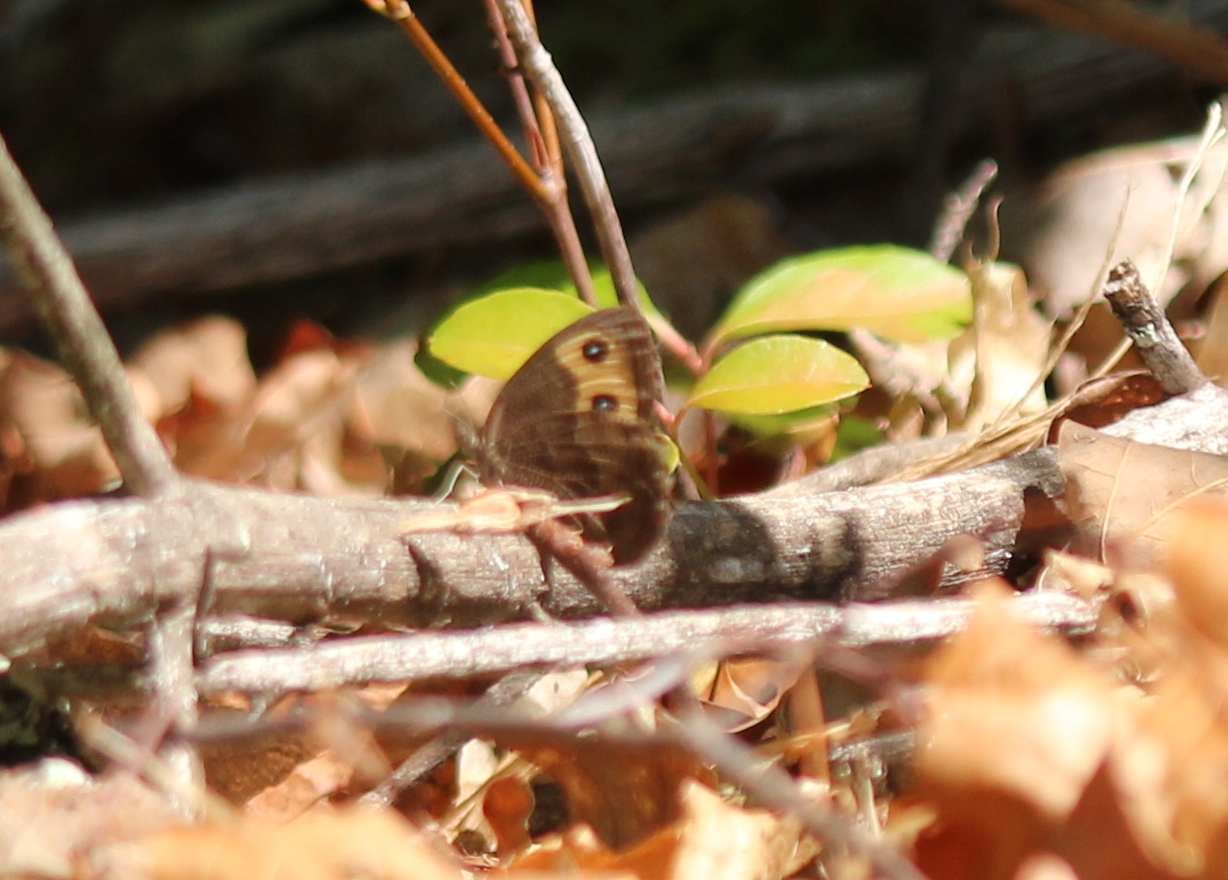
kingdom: Animalia
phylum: Arthropoda
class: Insecta
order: Lepidoptera
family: Nymphalidae
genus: Cercyonis
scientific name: Cercyonis pegala
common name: Common wood-nymph
